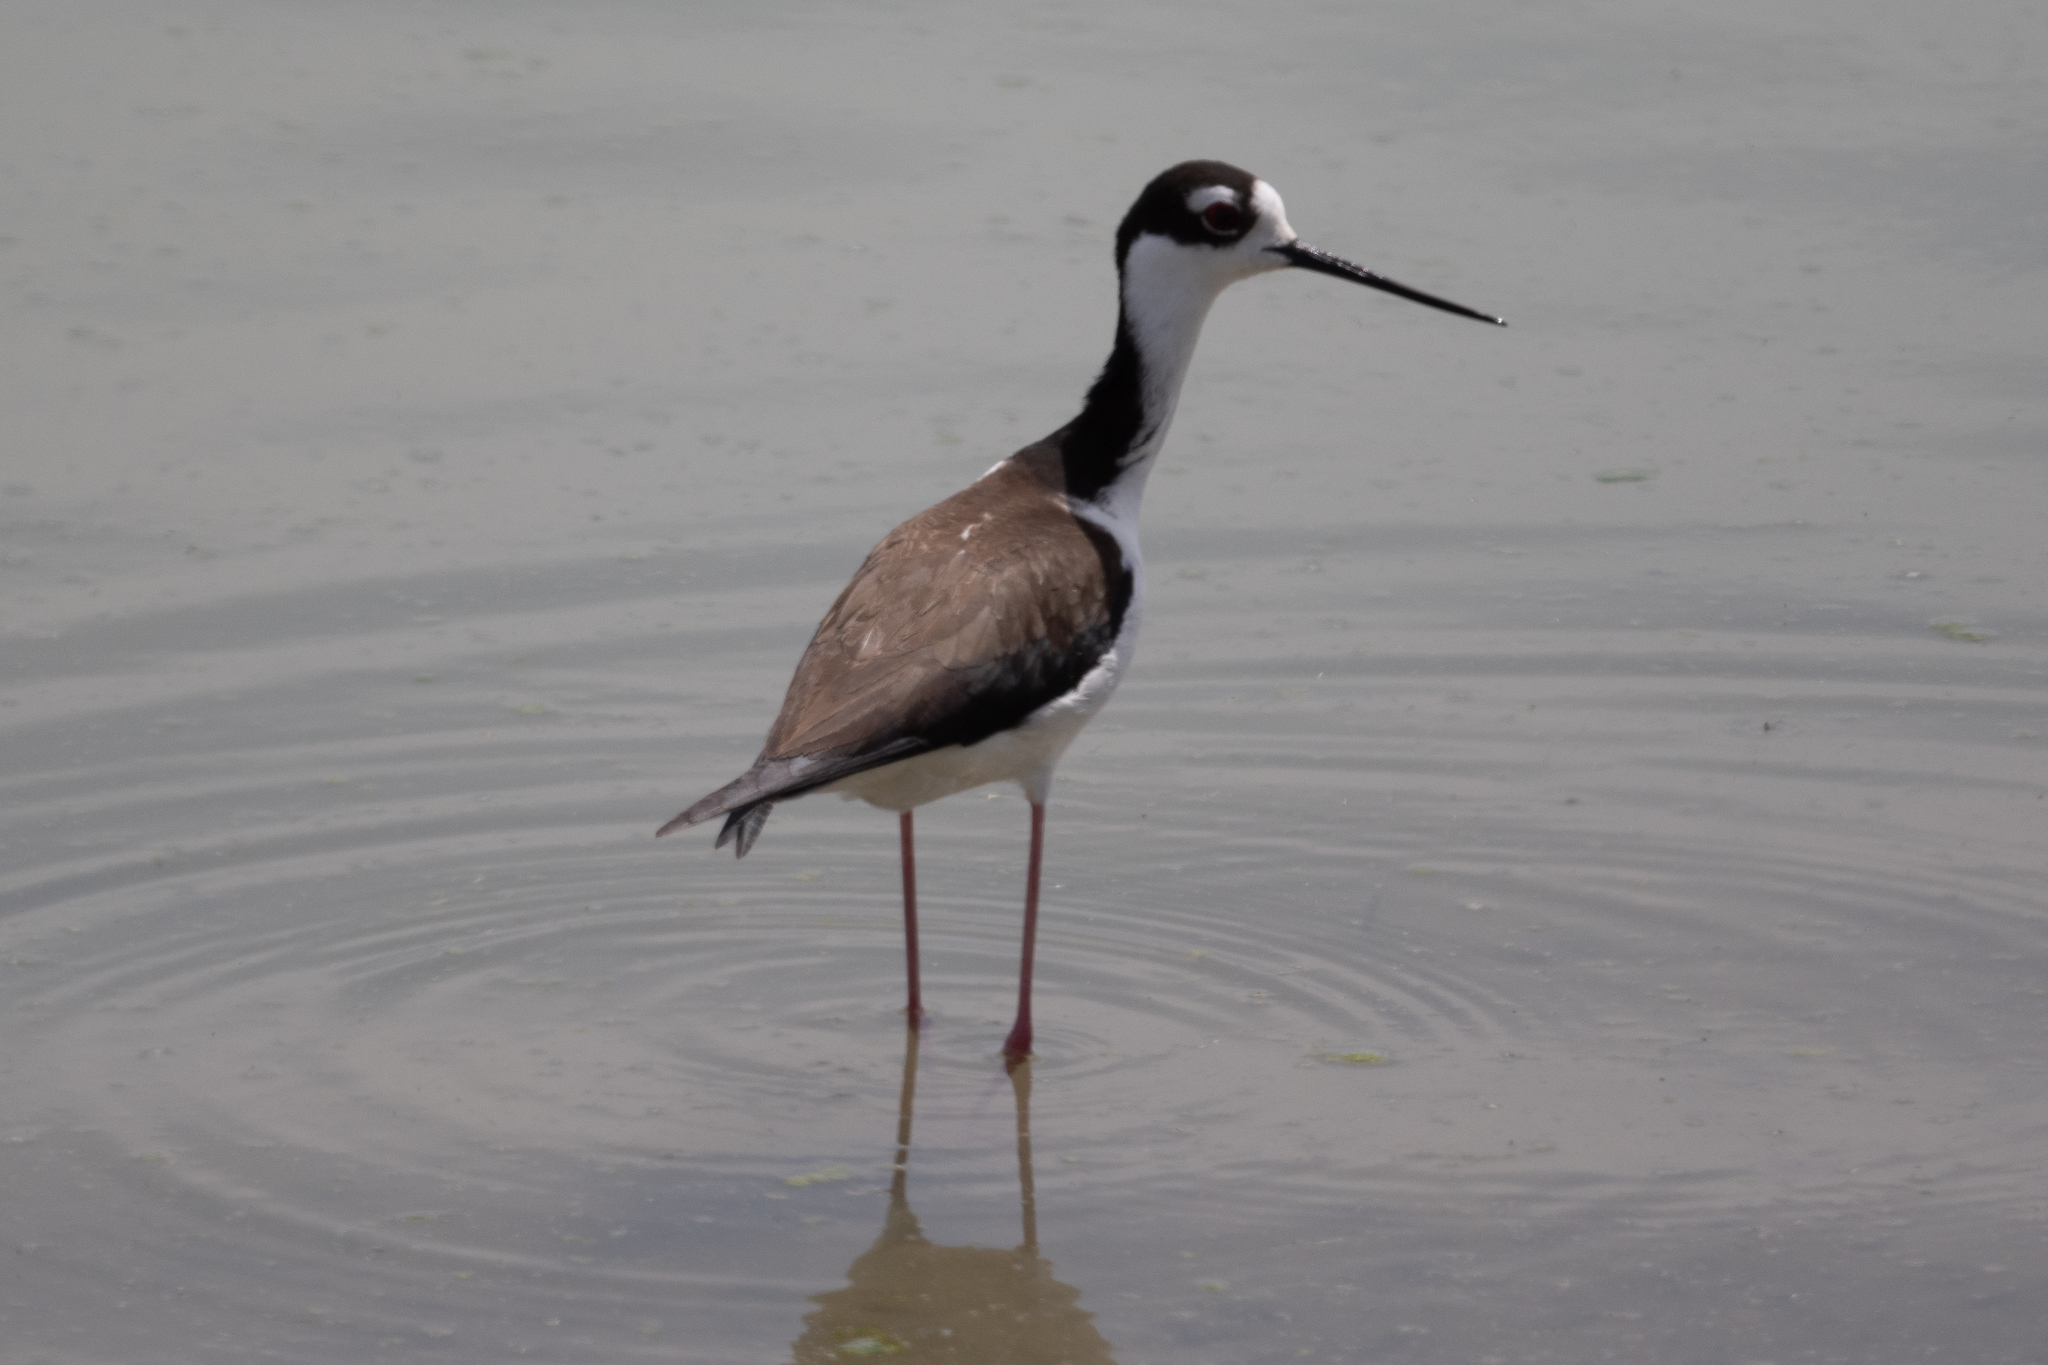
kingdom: Animalia
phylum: Chordata
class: Aves
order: Charadriiformes
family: Recurvirostridae
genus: Himantopus
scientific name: Himantopus mexicanus
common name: Black-necked stilt
